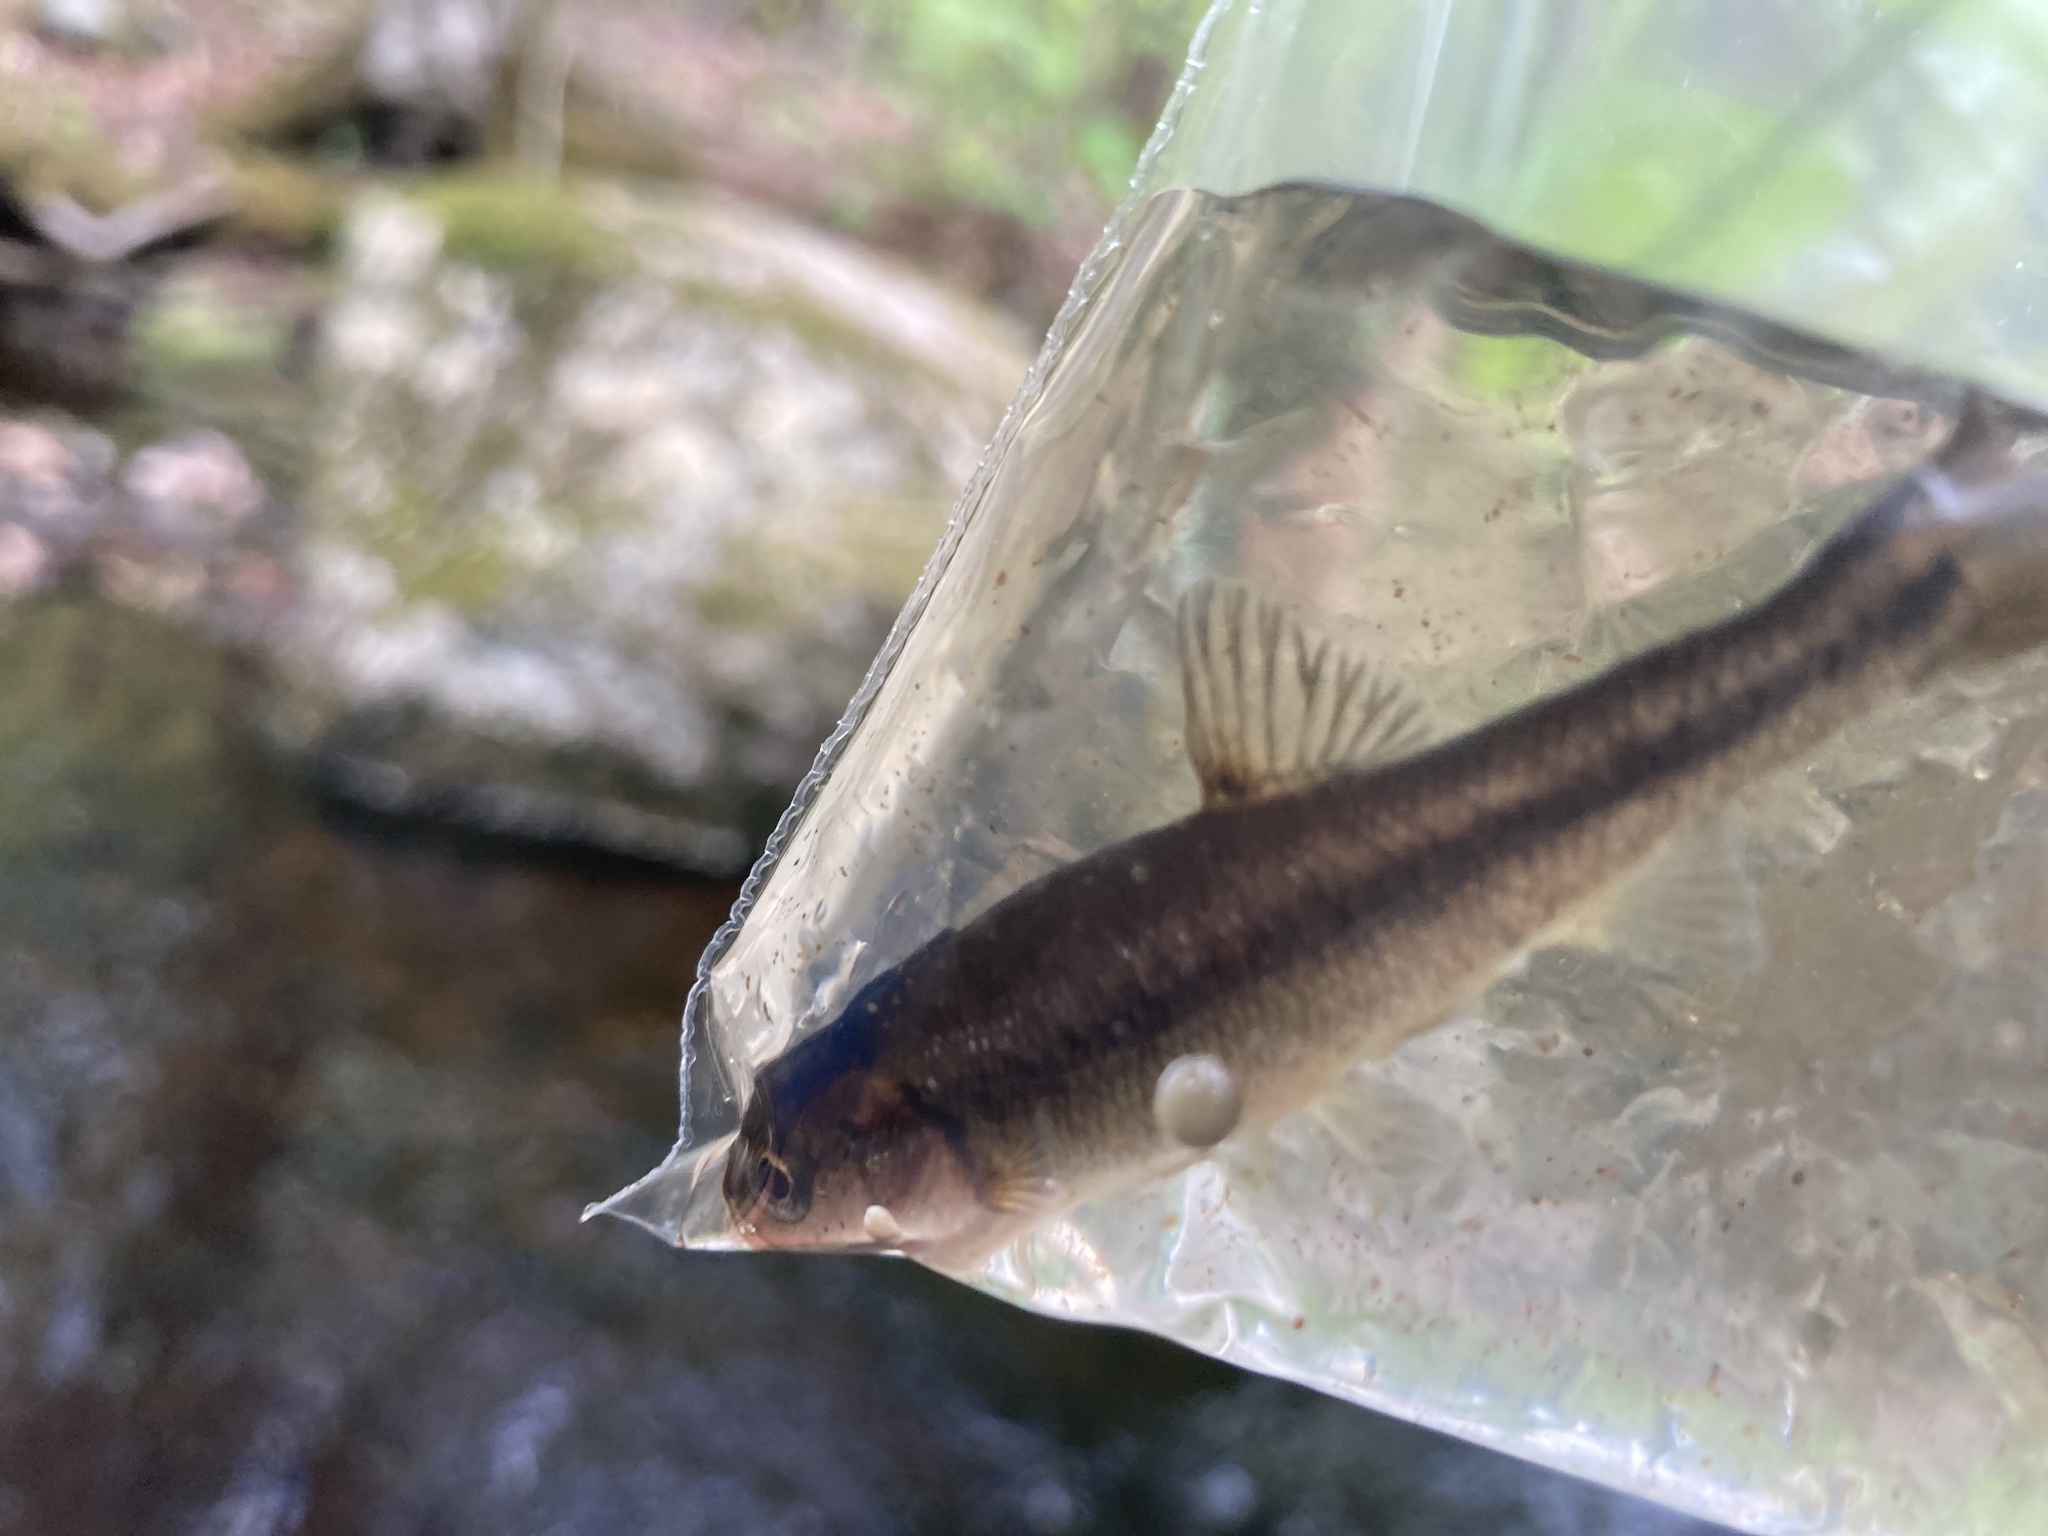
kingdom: Animalia
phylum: Chordata
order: Cypriniformes
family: Cyprinidae
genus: Semotilus
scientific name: Semotilus atromaculatus
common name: Creek chub
